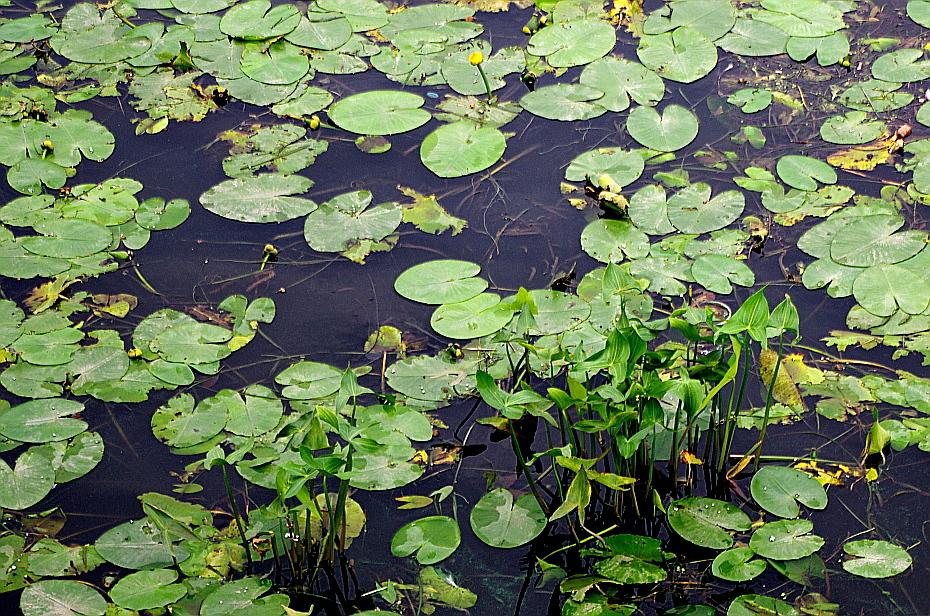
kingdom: Plantae
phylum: Tracheophyta
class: Magnoliopsida
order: Nymphaeales
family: Nymphaeaceae
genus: Nuphar
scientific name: Nuphar lutea
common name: Yellow water-lily
